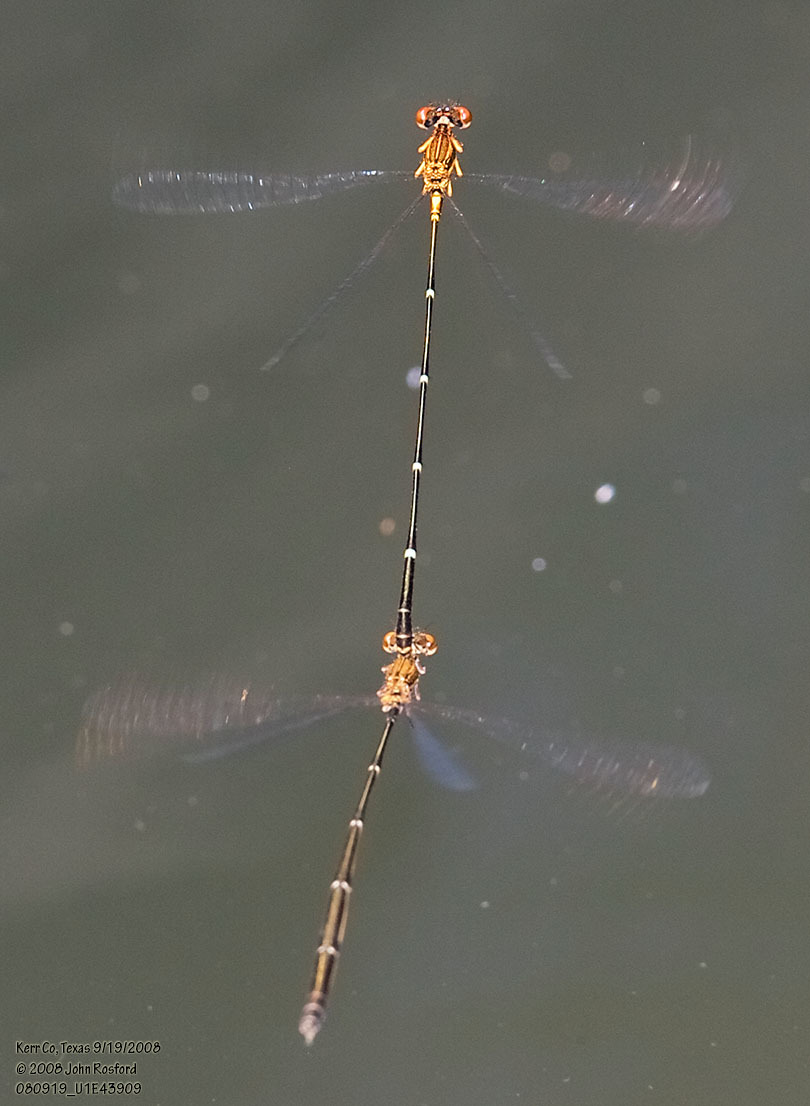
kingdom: Animalia
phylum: Arthropoda
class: Insecta
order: Odonata
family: Coenagrionidae
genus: Protoneura
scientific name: Protoneura cara
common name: Orange-striped threadtail
